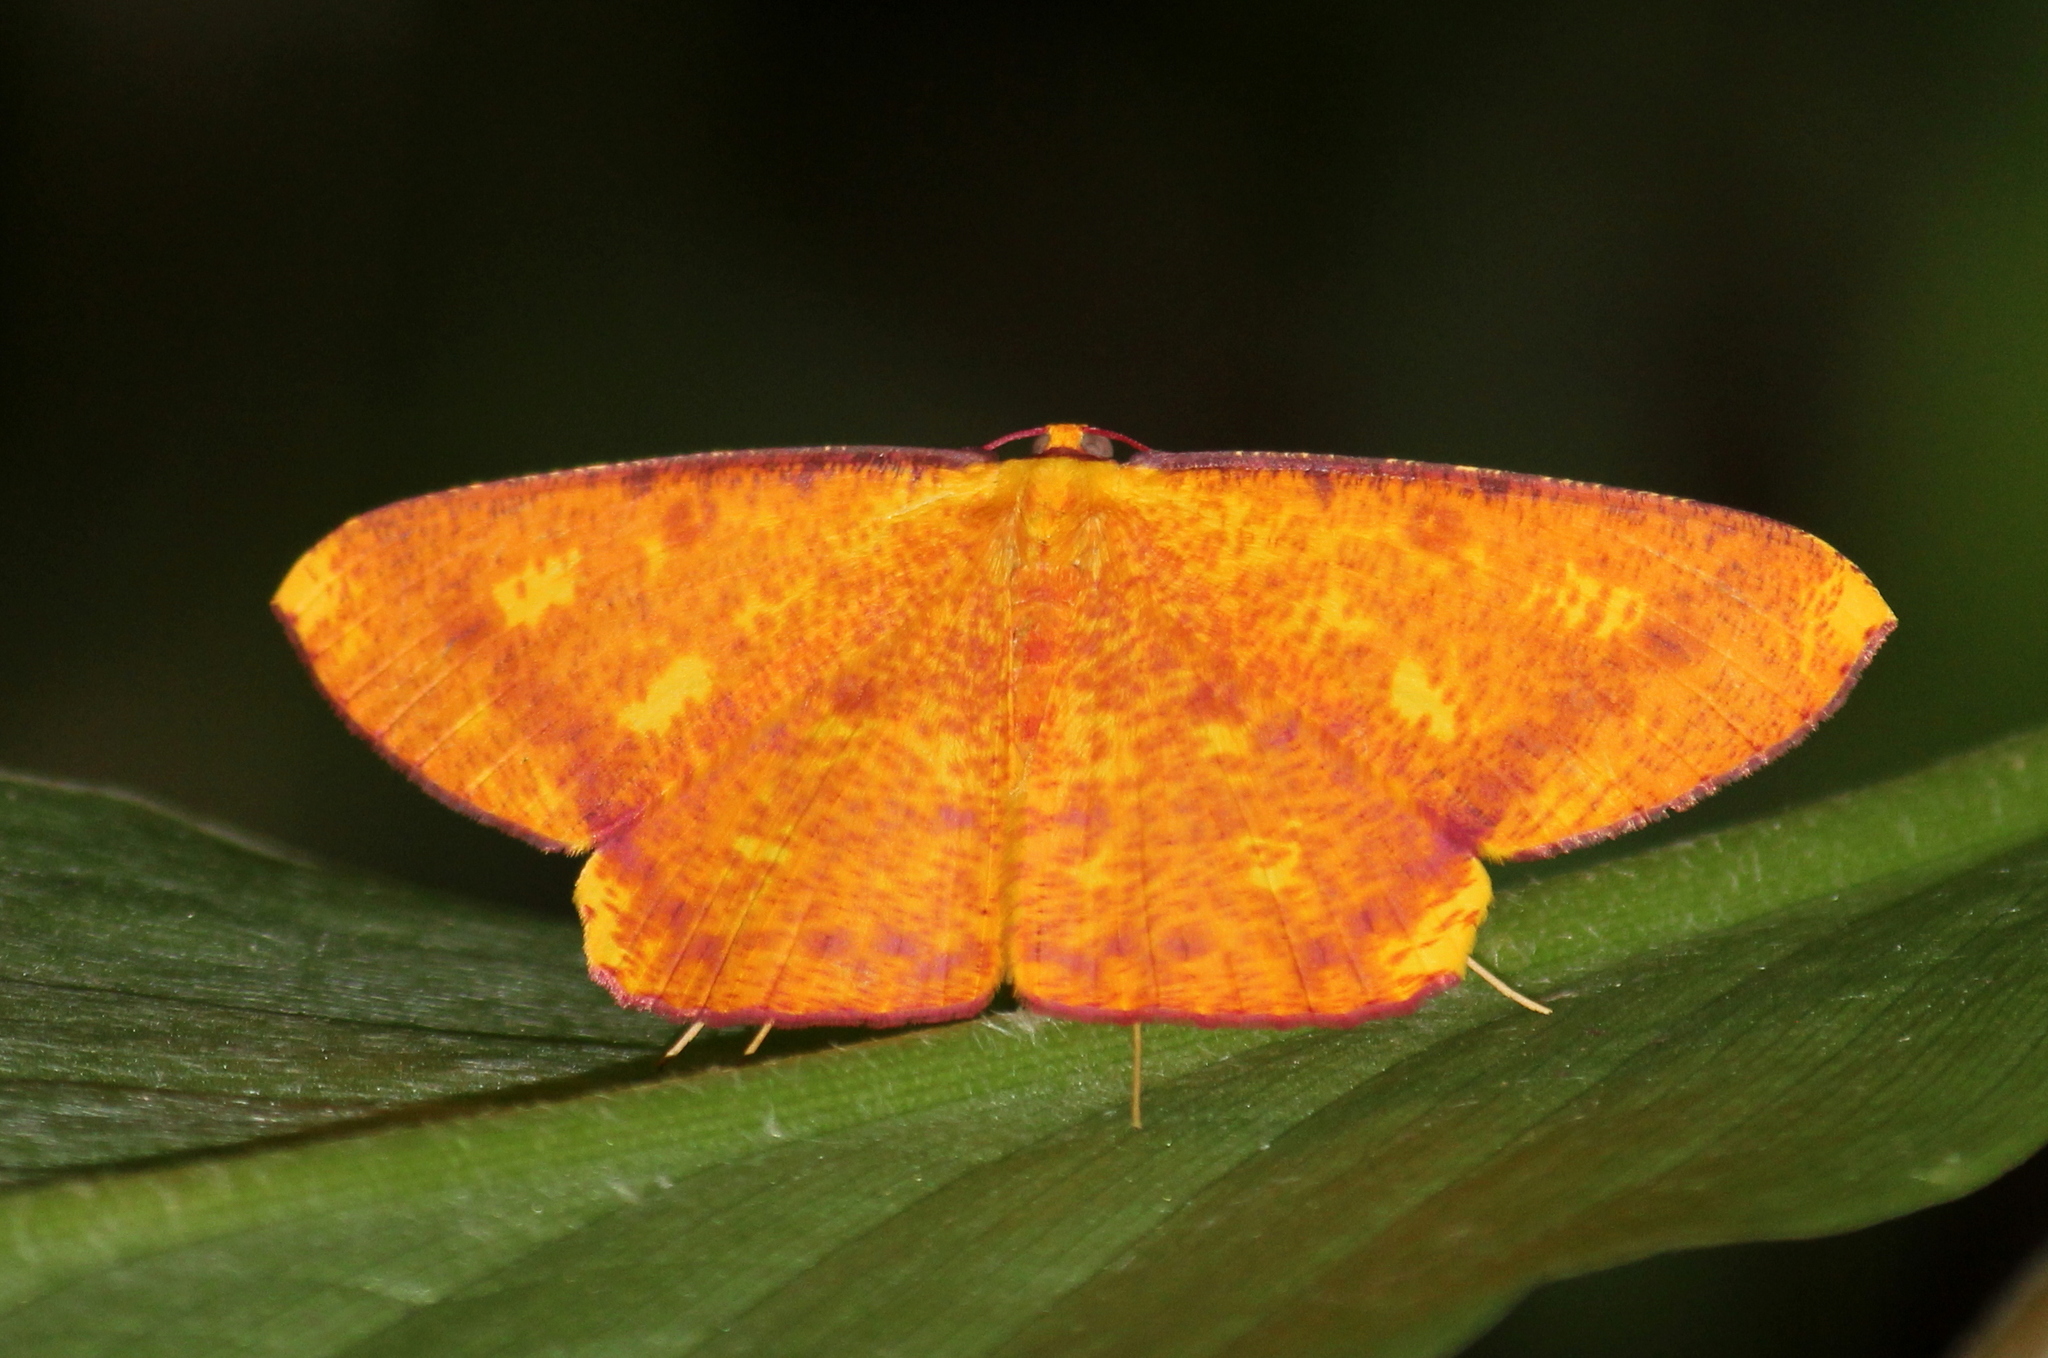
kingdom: Animalia
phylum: Arthropoda
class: Insecta
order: Lepidoptera
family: Geometridae
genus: Eumelea
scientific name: Eumelea ludovicata
